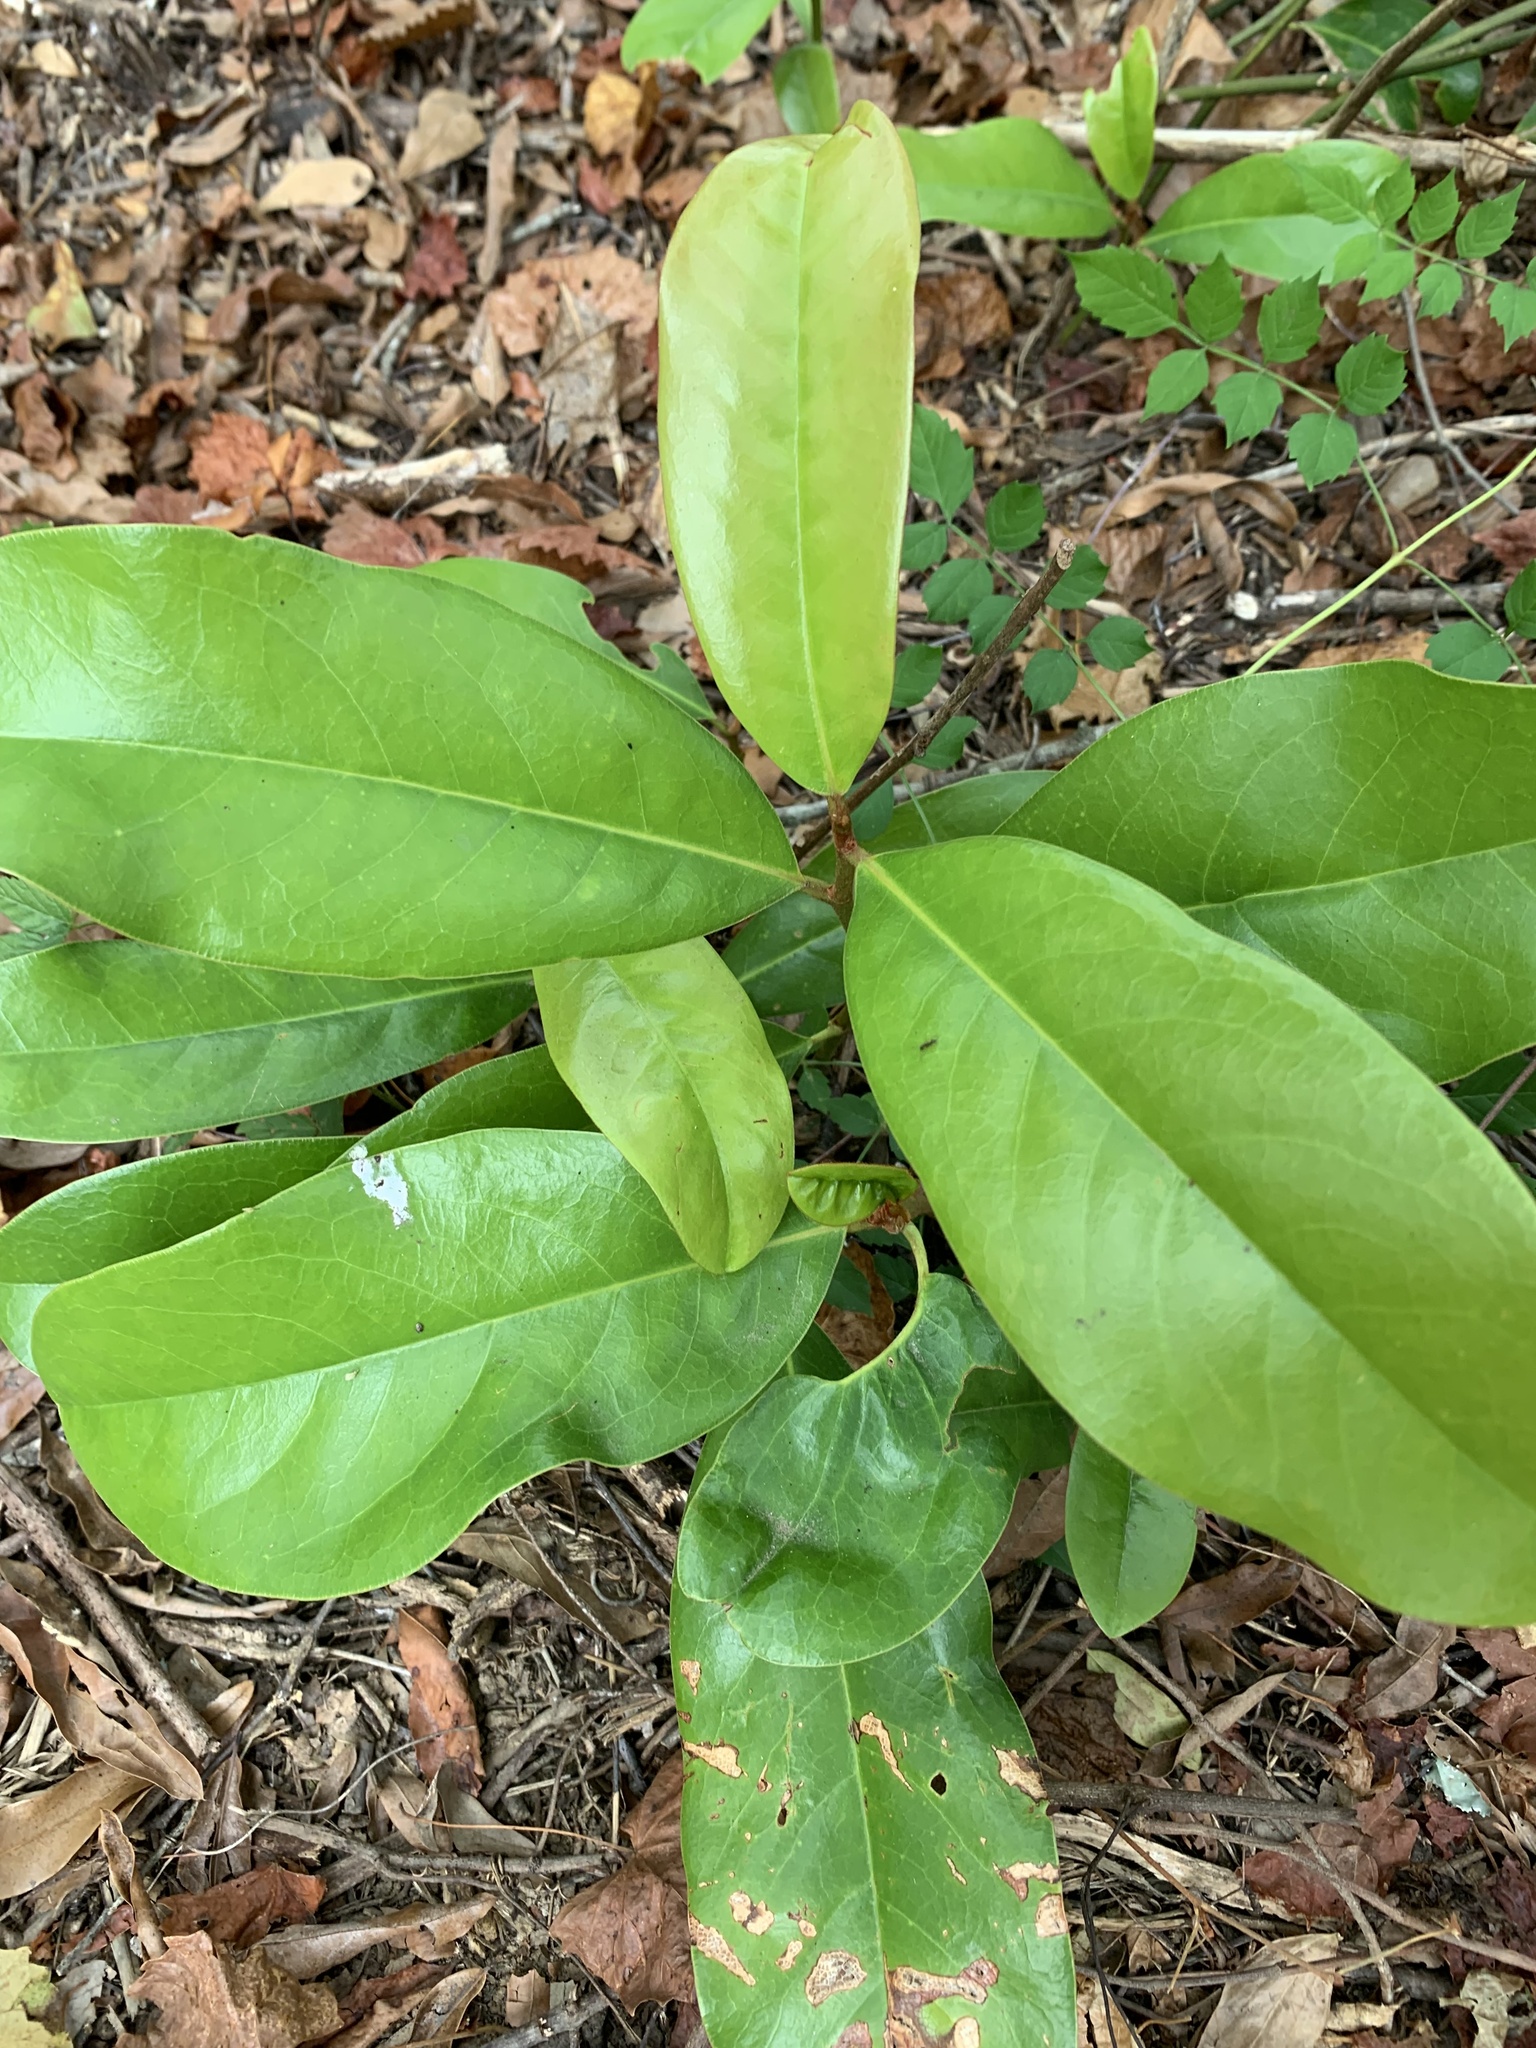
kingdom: Plantae
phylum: Tracheophyta
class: Magnoliopsida
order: Magnoliales
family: Magnoliaceae
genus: Magnolia
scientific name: Magnolia grandiflora
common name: Southern magnolia
